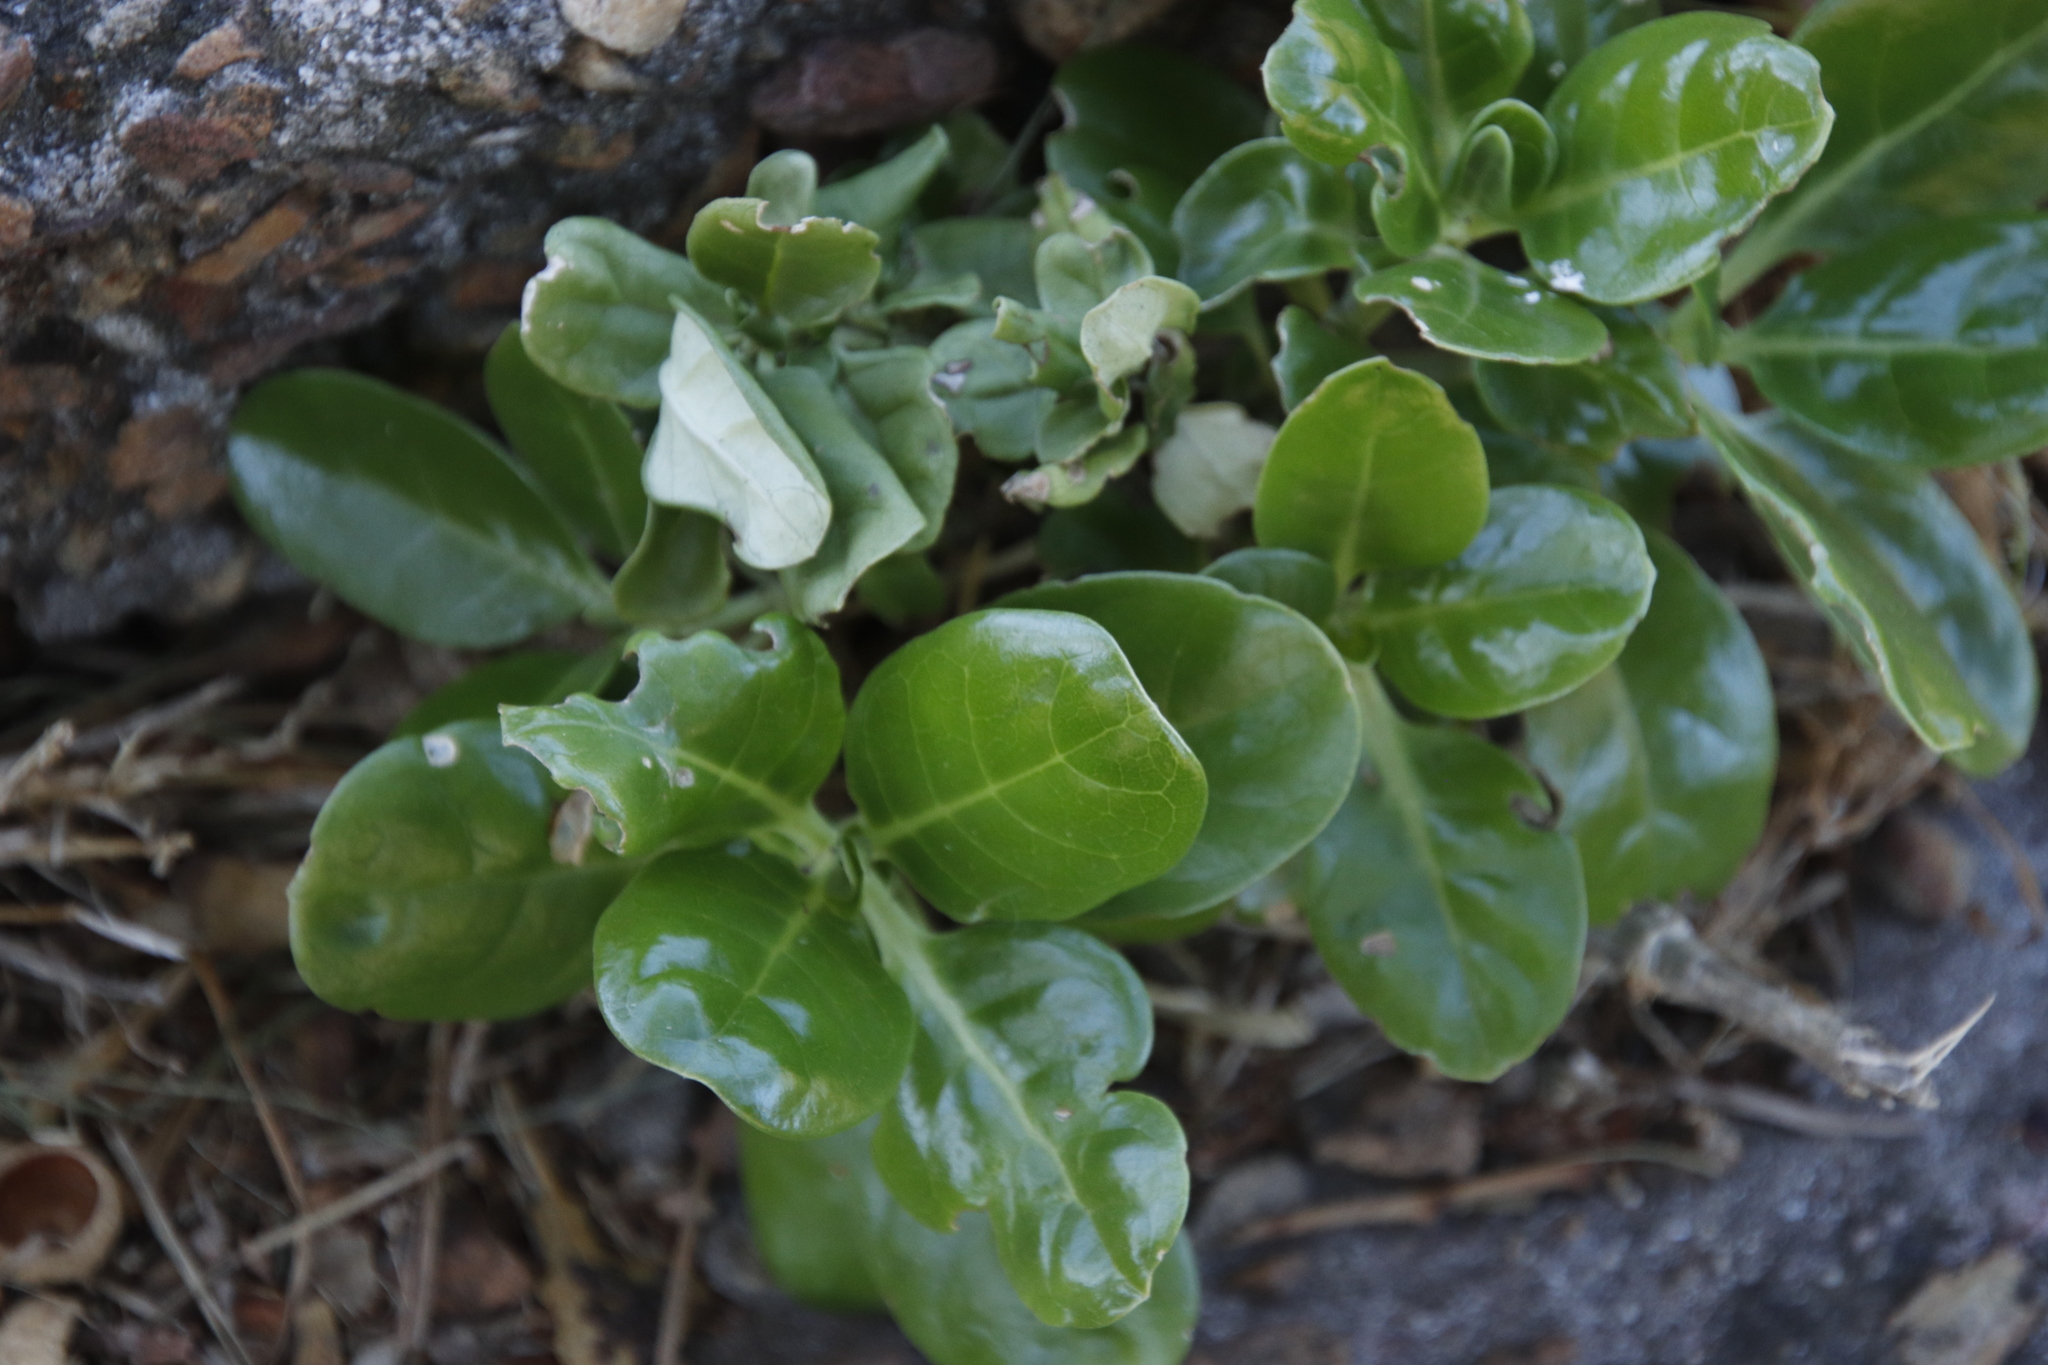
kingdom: Plantae
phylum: Tracheophyta
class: Magnoliopsida
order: Gentianales
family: Rubiaceae
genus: Coprosma
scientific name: Coprosma repens
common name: Tree bedstraw
